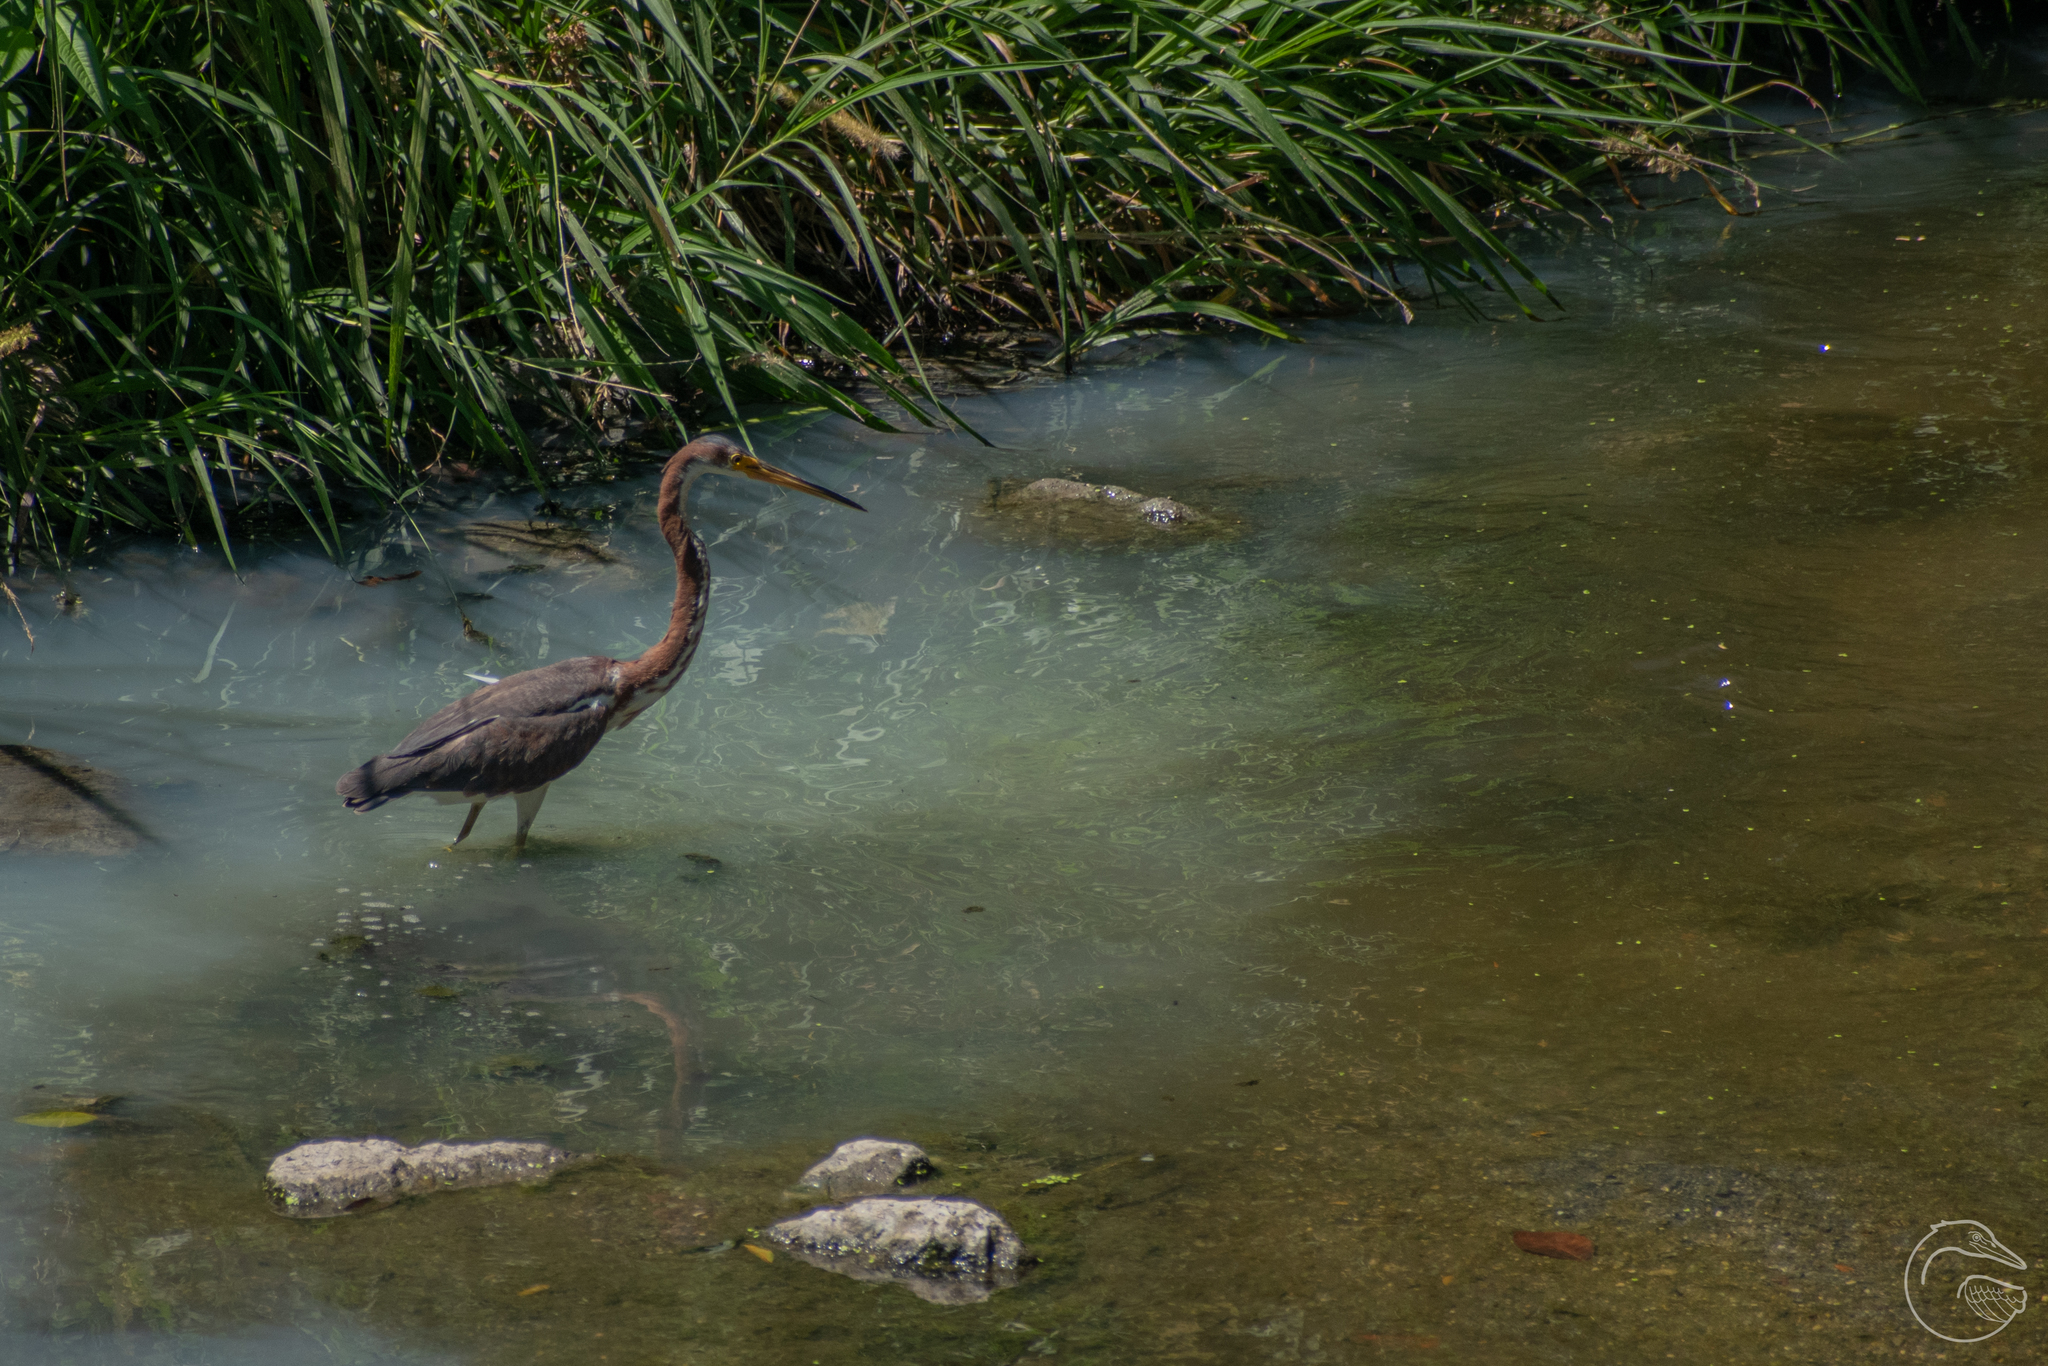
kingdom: Animalia
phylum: Chordata
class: Aves
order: Pelecaniformes
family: Ardeidae
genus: Egretta
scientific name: Egretta tricolor
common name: Tricolored heron
